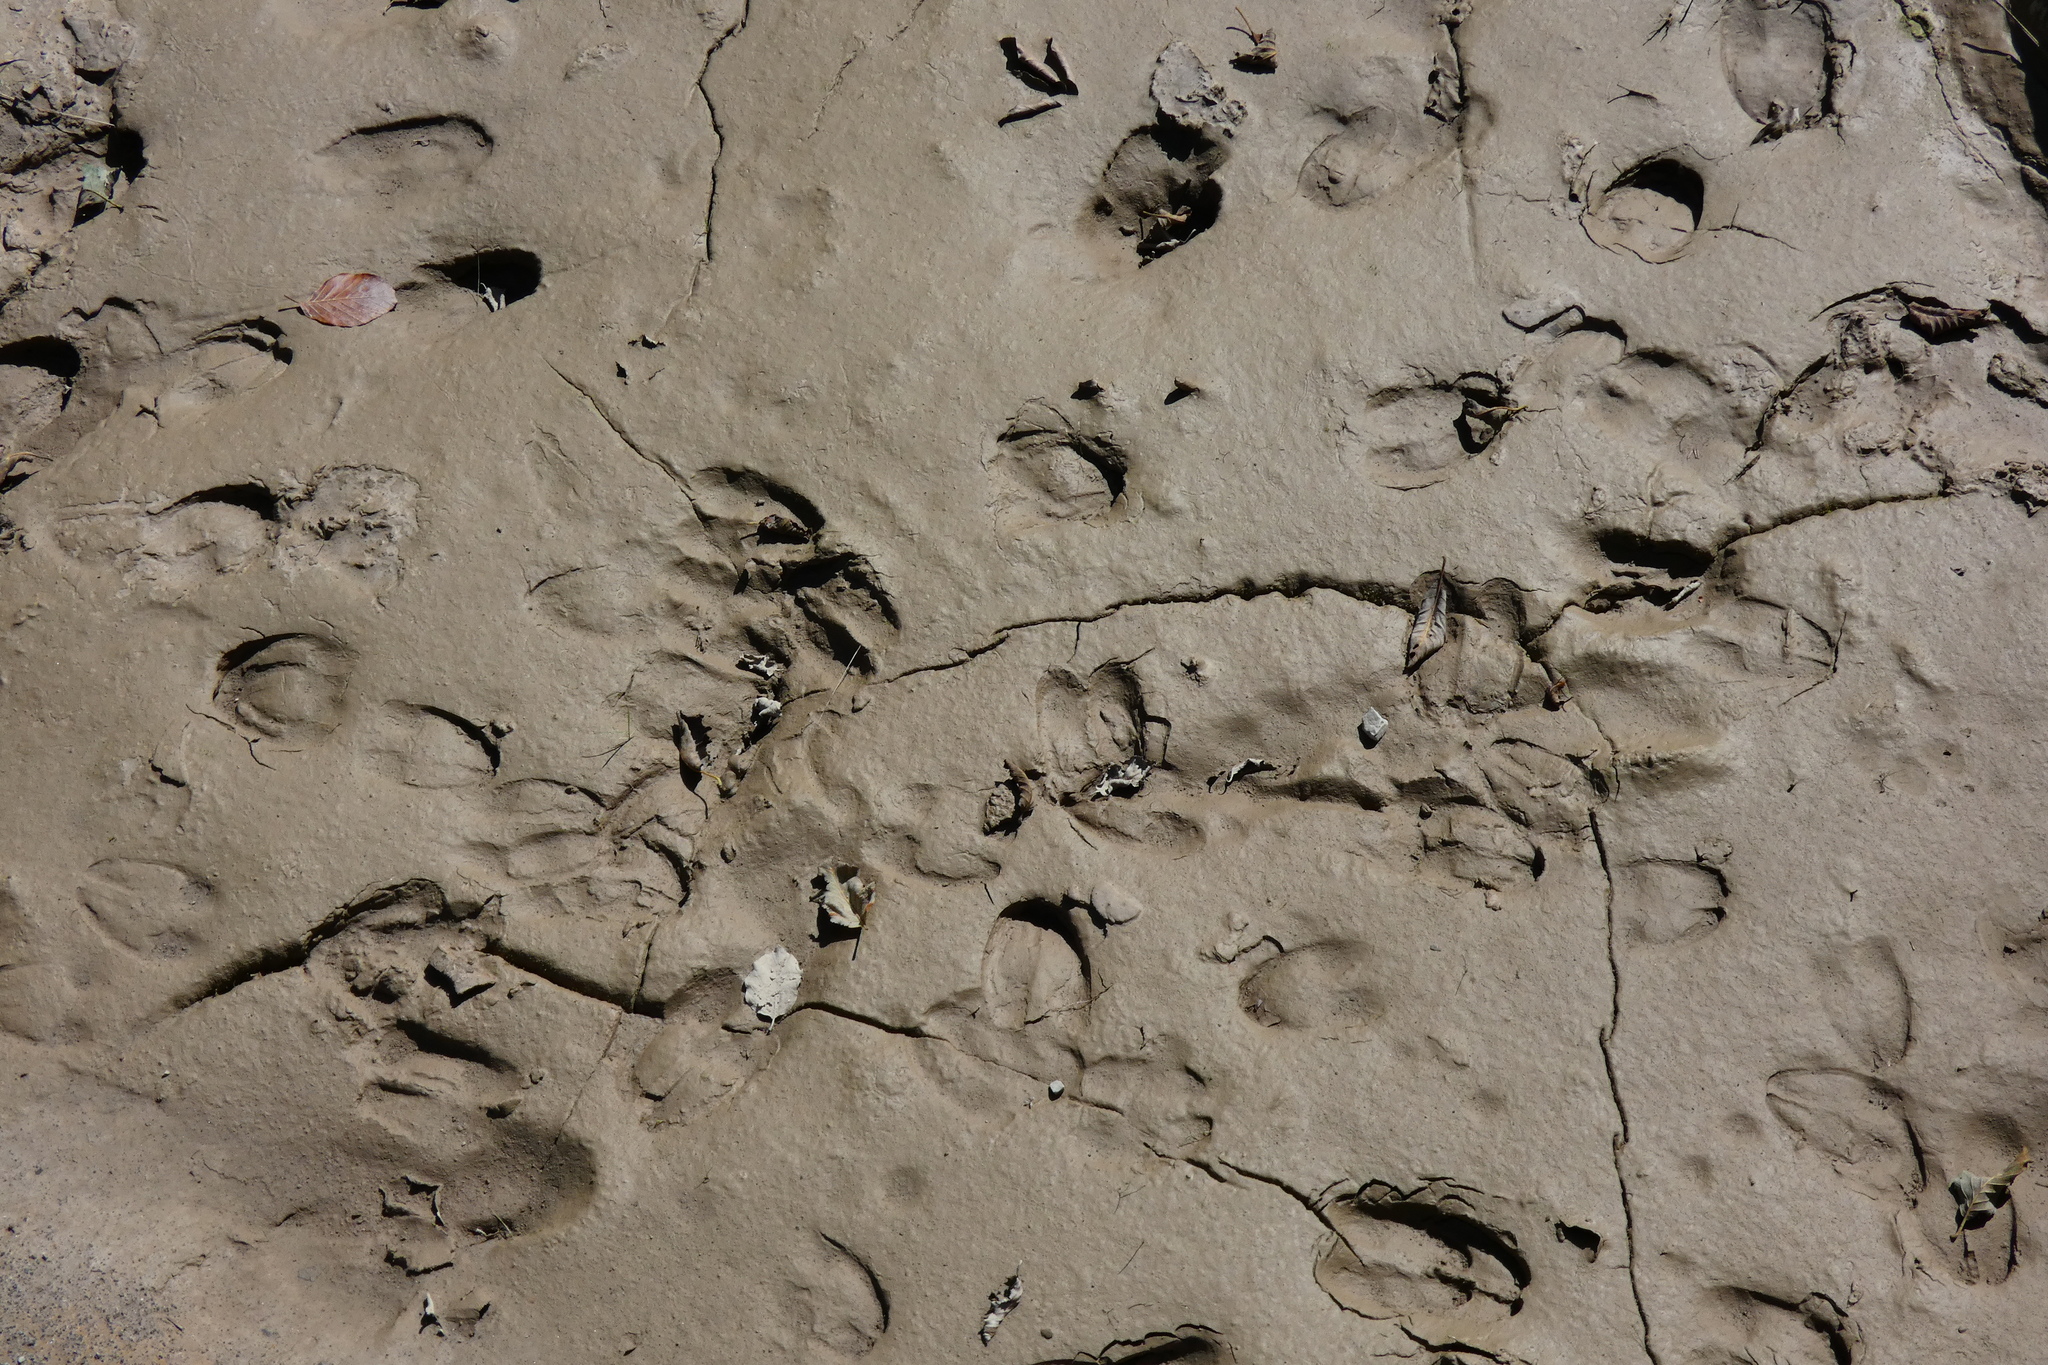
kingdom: Animalia
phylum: Chordata
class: Mammalia
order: Artiodactyla
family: Cervidae
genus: Capreolus
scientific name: Capreolus capreolus
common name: Western roe deer
